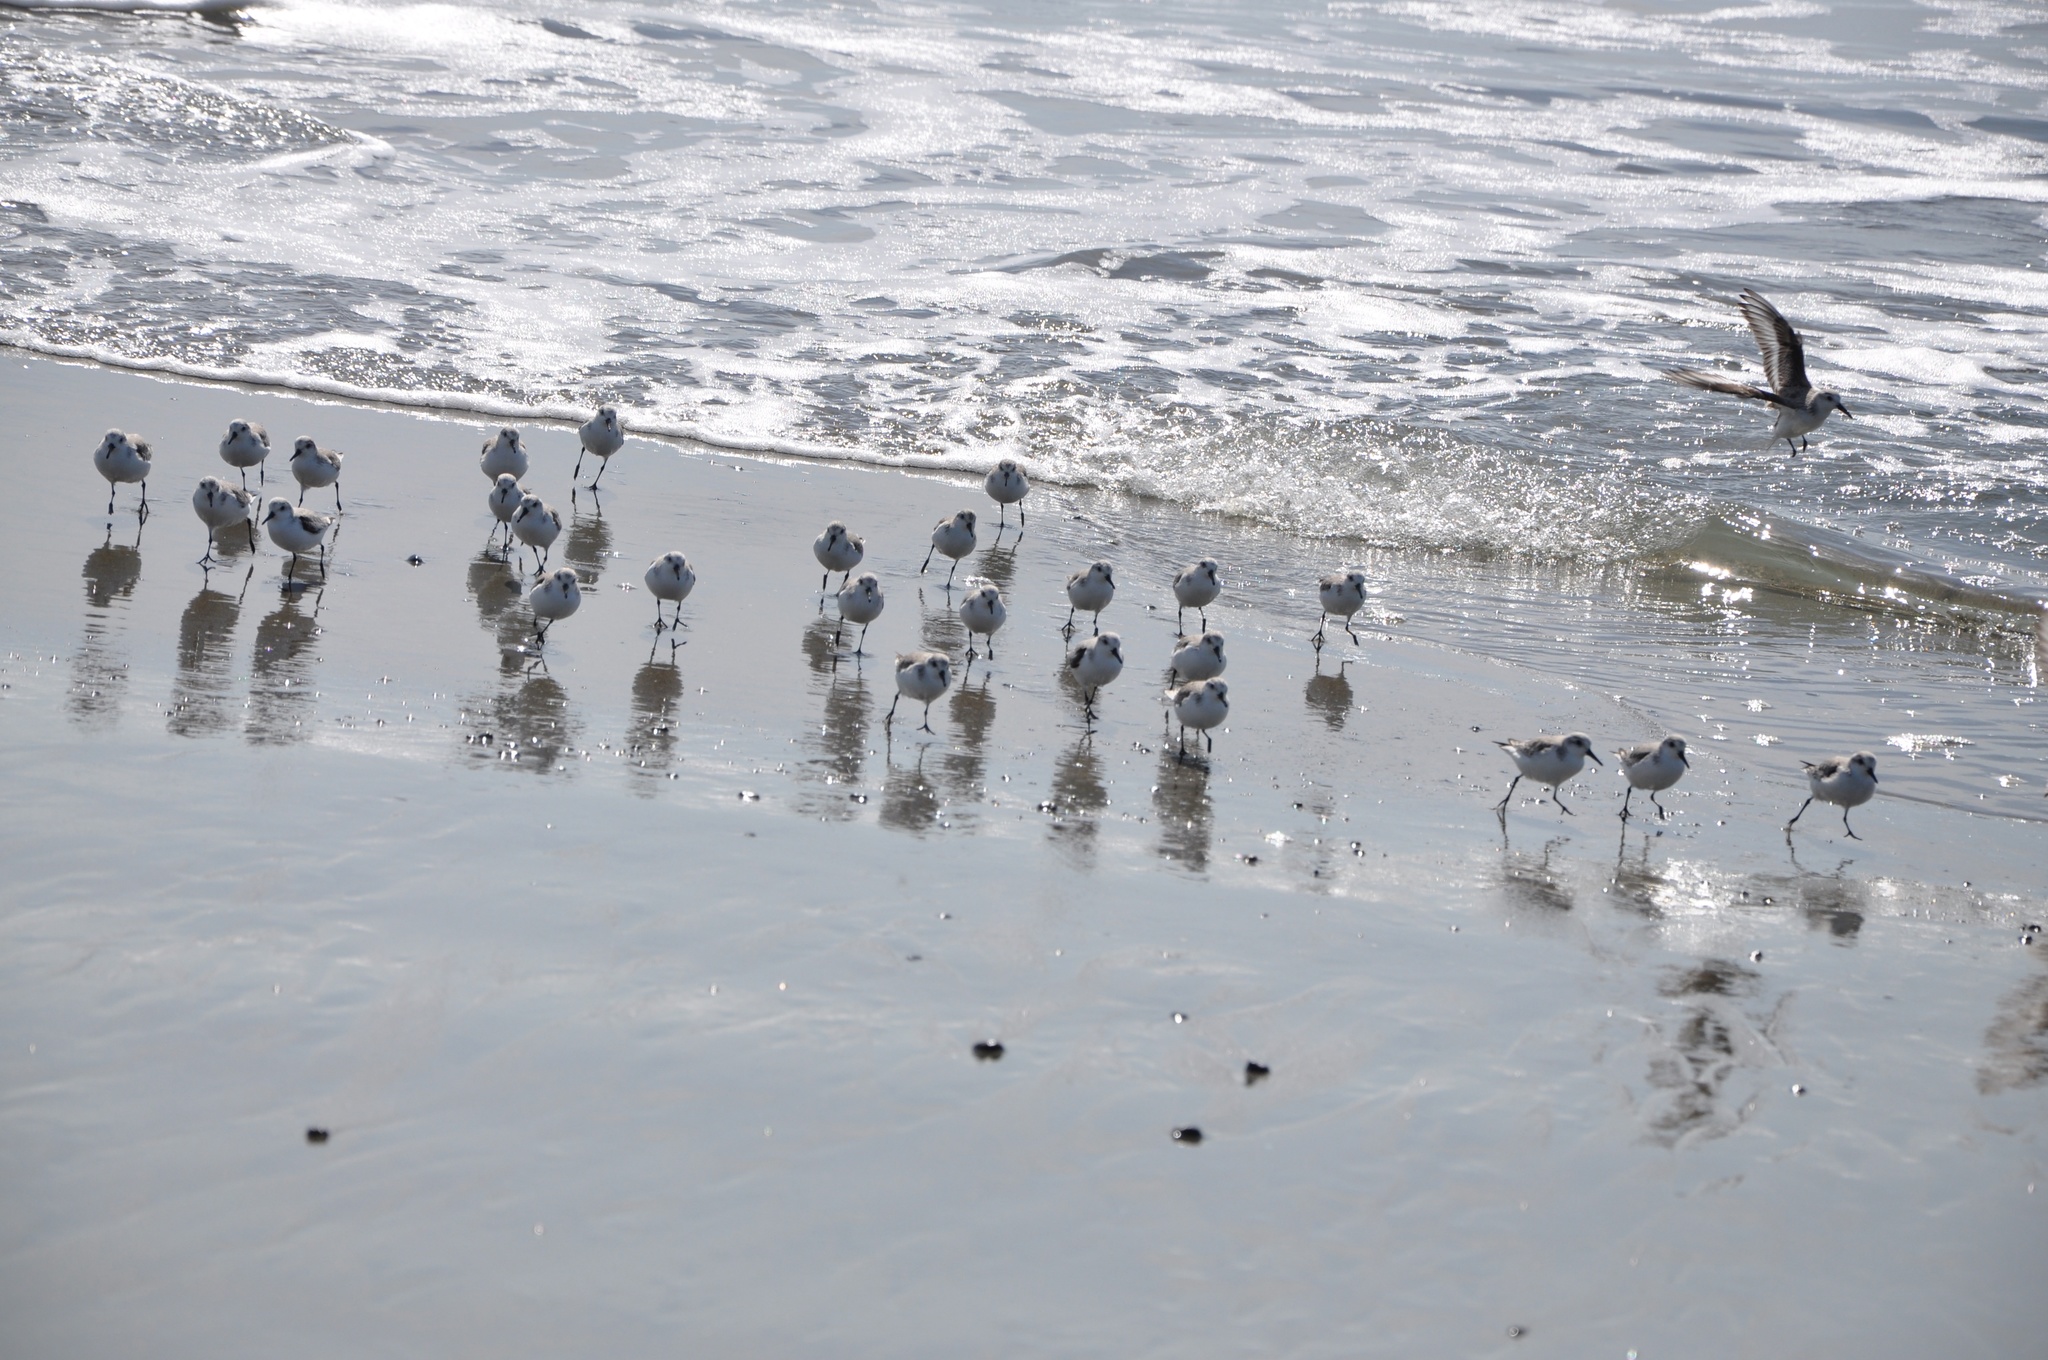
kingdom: Animalia
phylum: Chordata
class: Aves
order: Charadriiformes
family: Scolopacidae
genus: Calidris
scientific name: Calidris alba
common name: Sanderling
